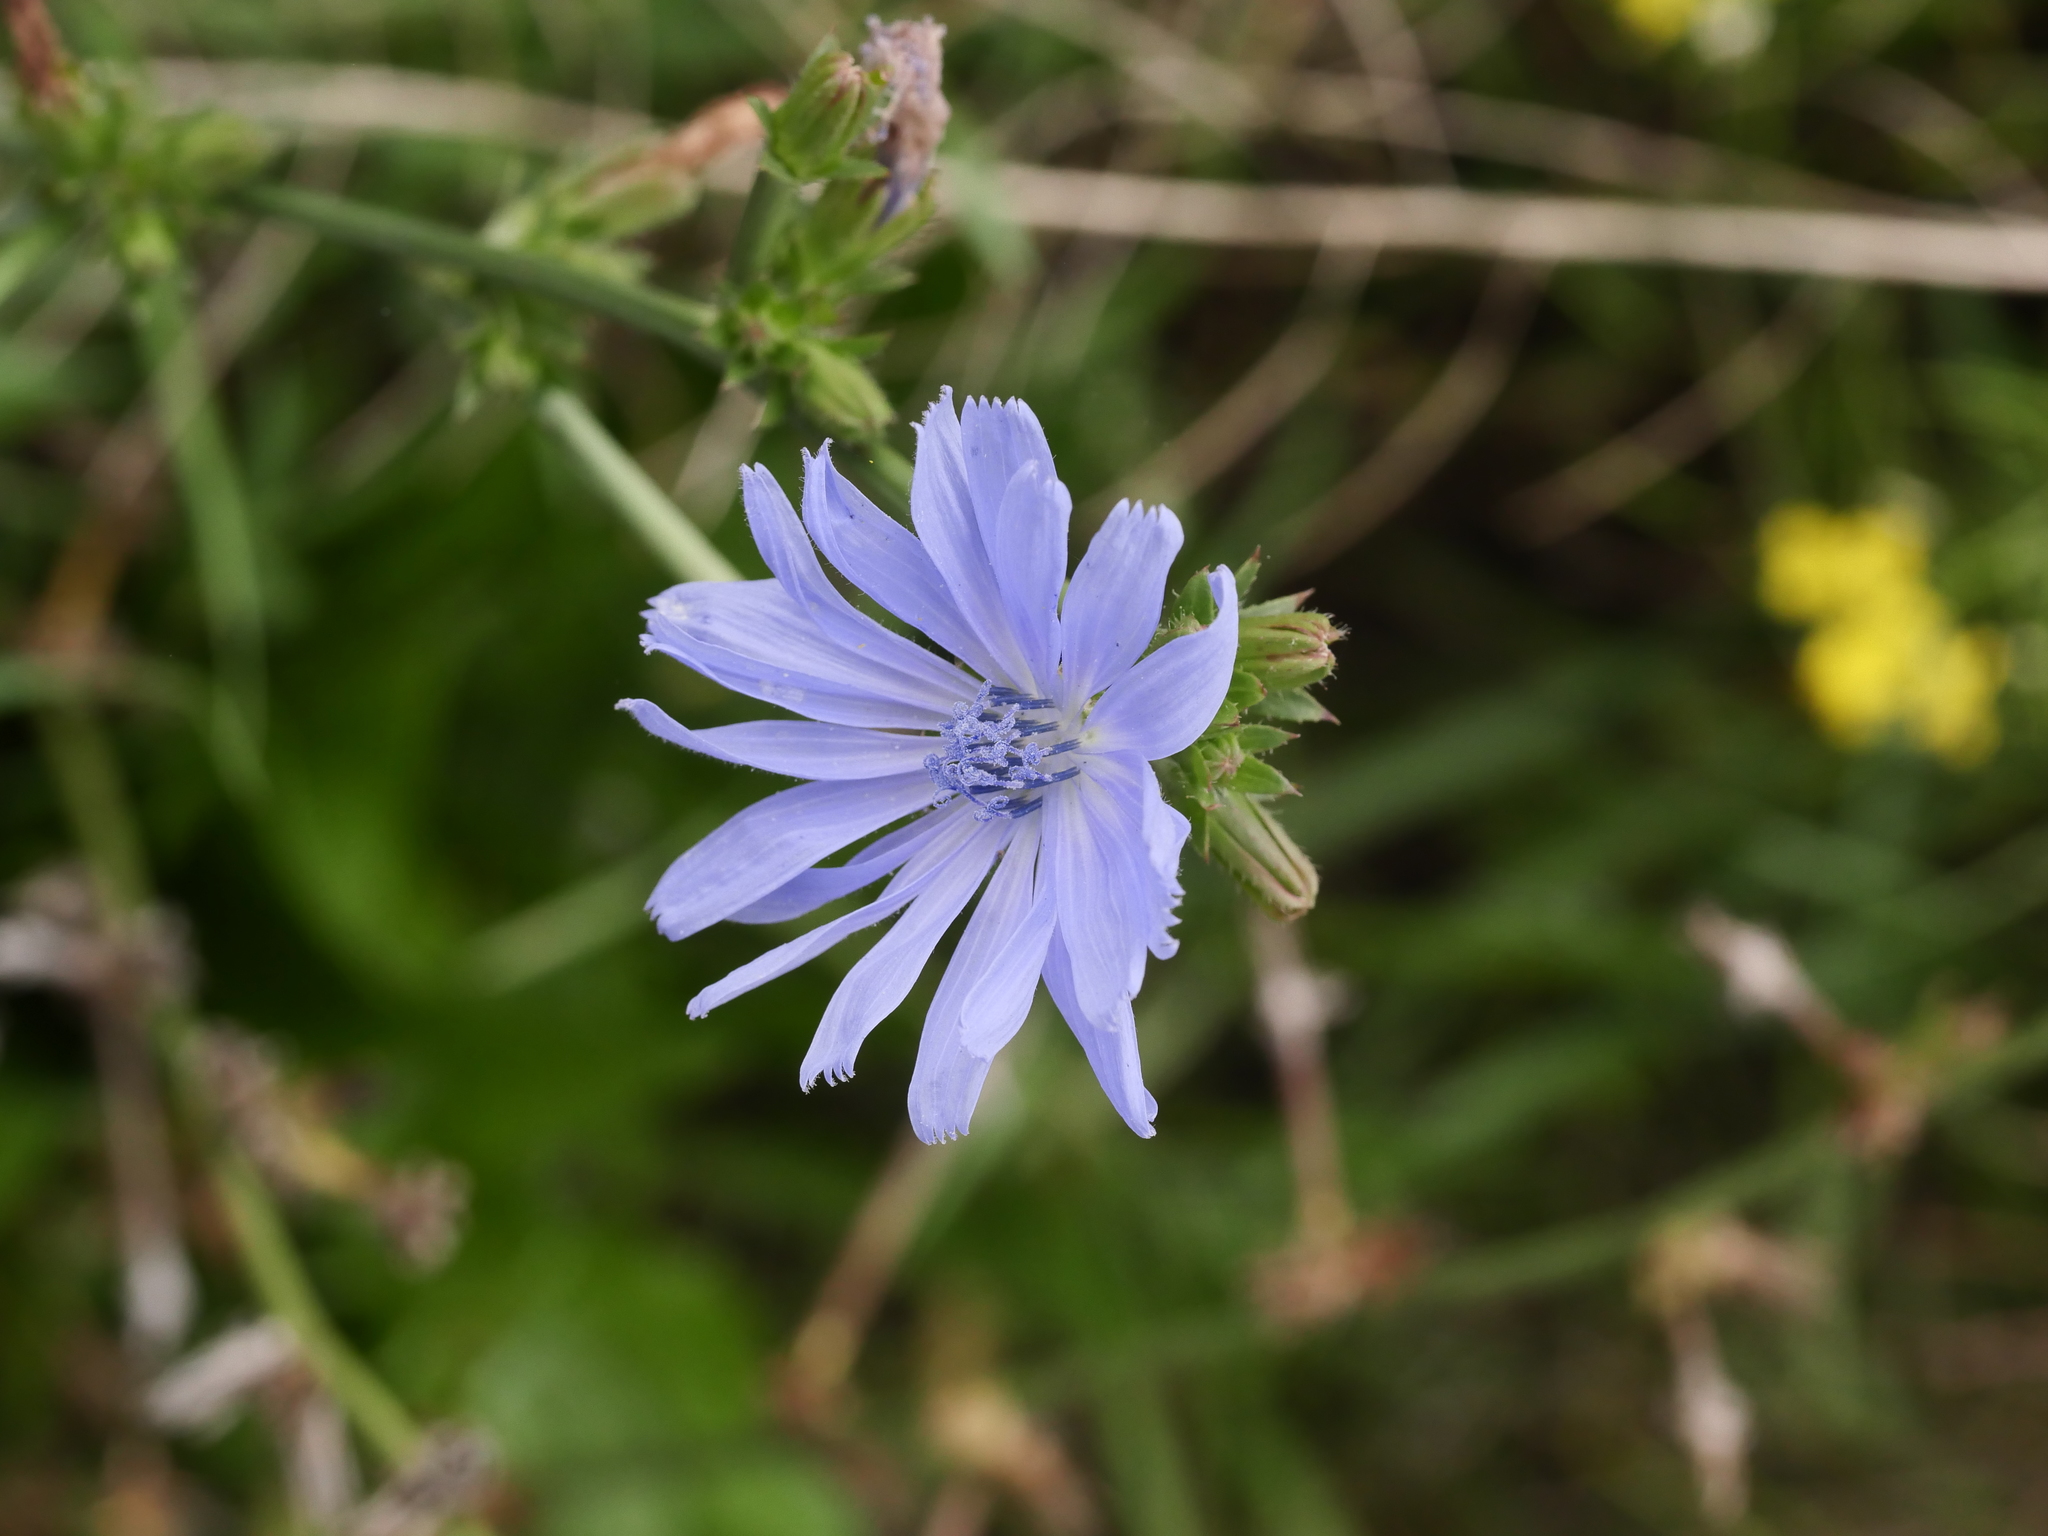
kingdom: Plantae
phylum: Tracheophyta
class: Magnoliopsida
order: Asterales
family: Asteraceae
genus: Cichorium
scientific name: Cichorium intybus
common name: Chicory
